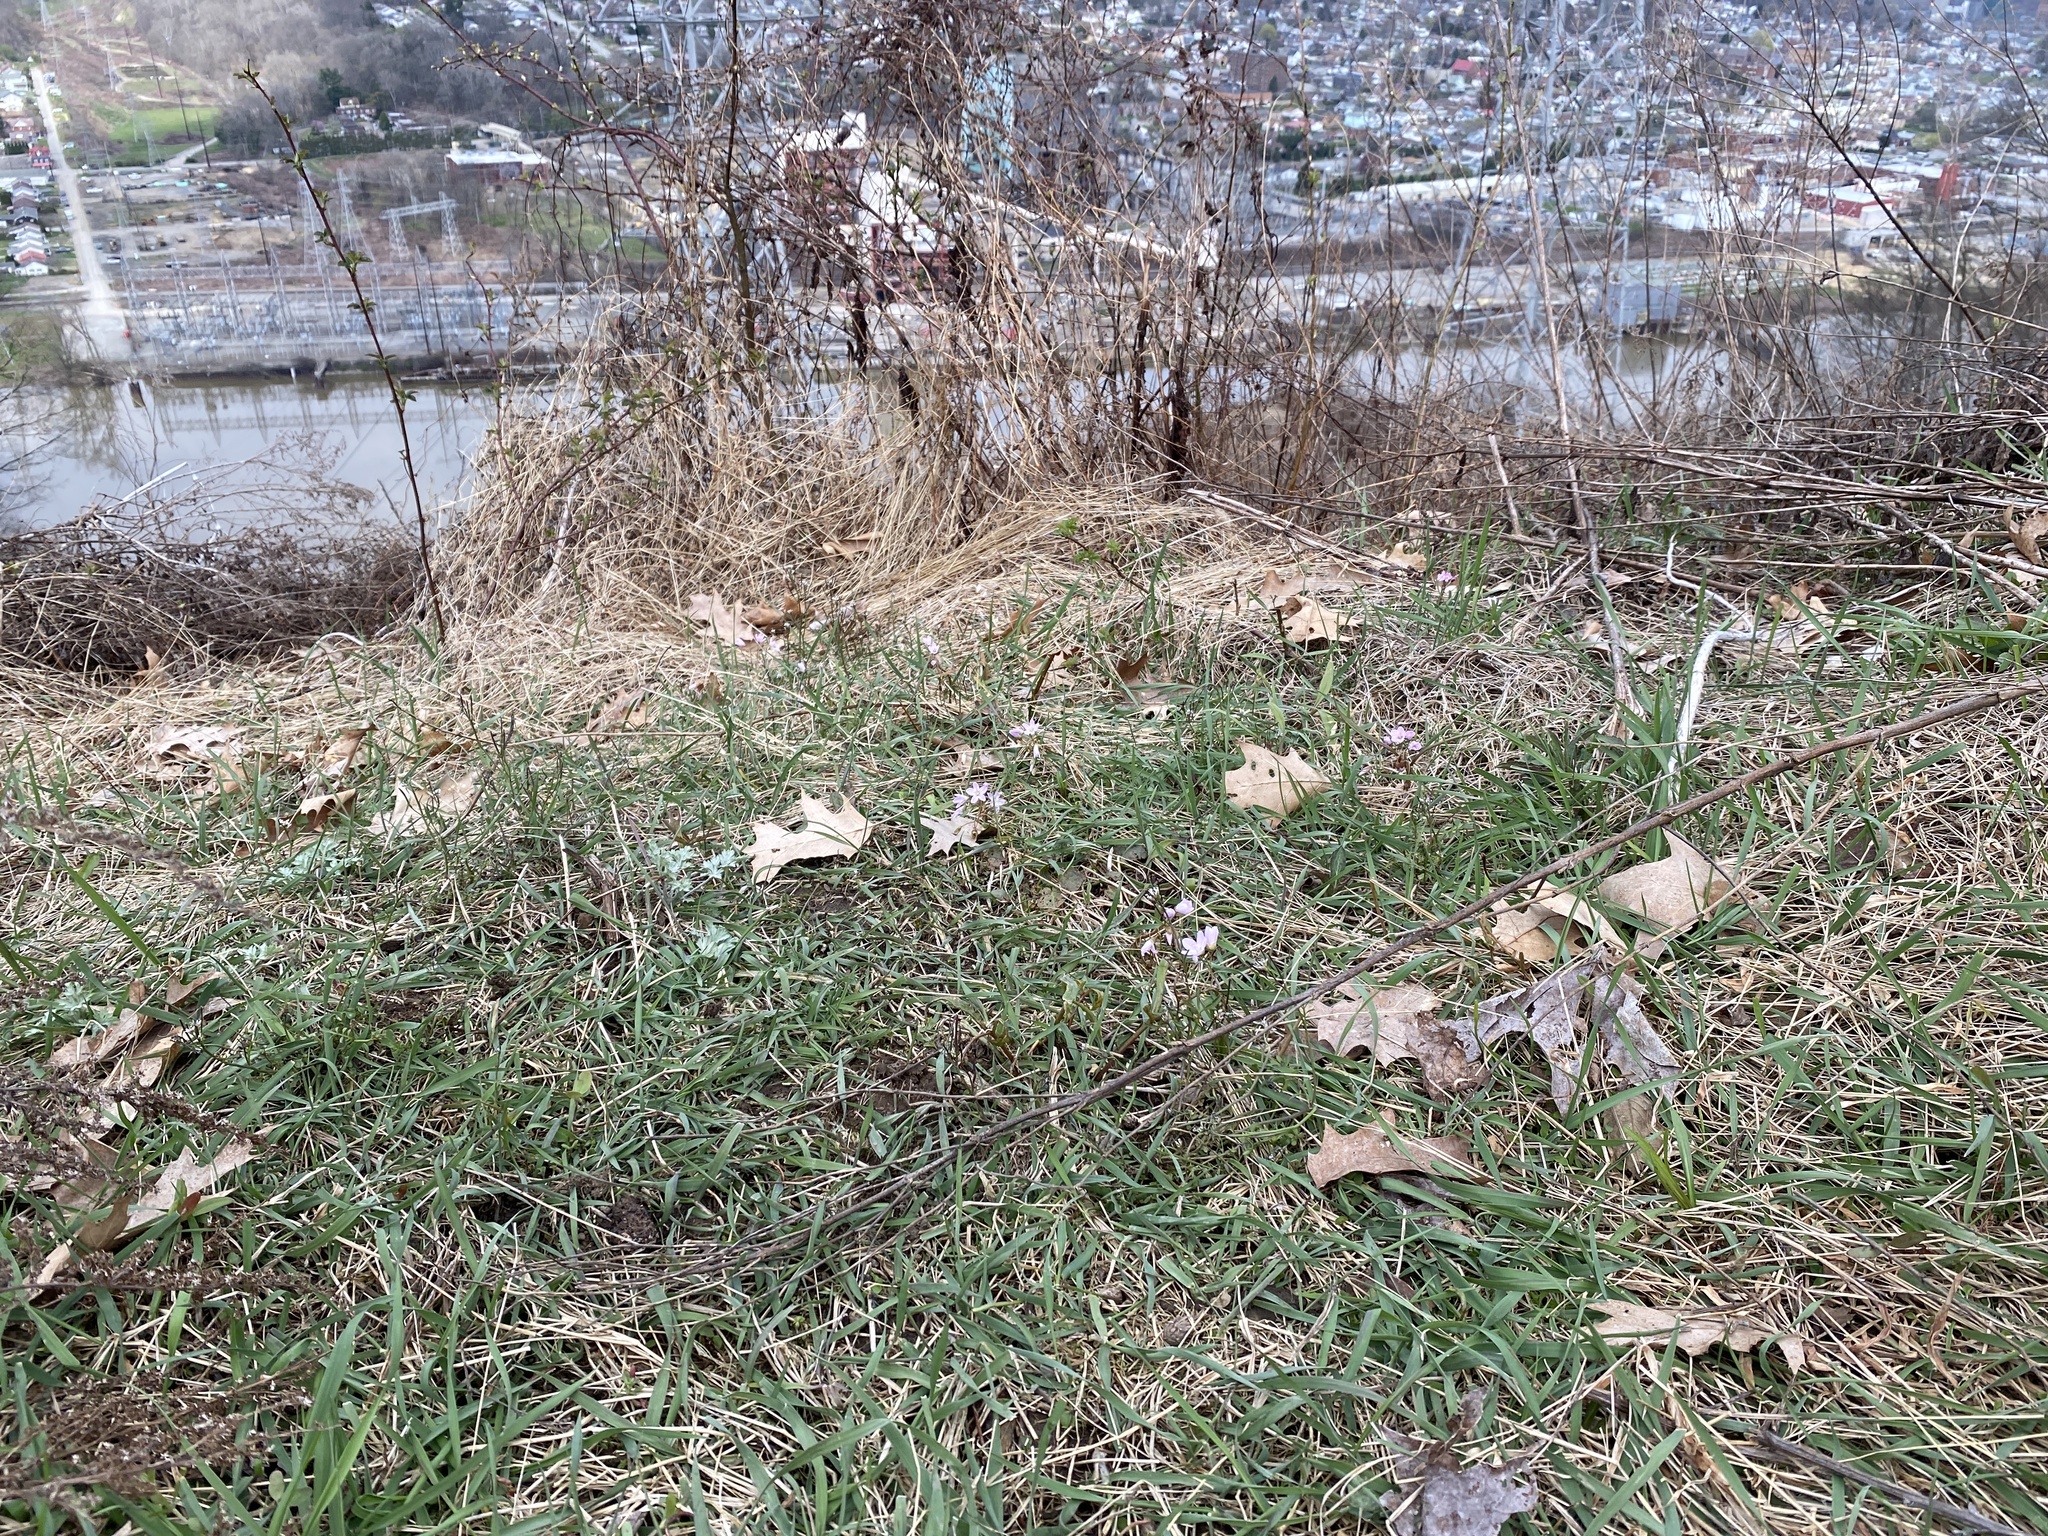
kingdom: Plantae
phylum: Tracheophyta
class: Magnoliopsida
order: Caryophyllales
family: Montiaceae
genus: Claytonia
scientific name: Claytonia virginica
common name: Virginia springbeauty
